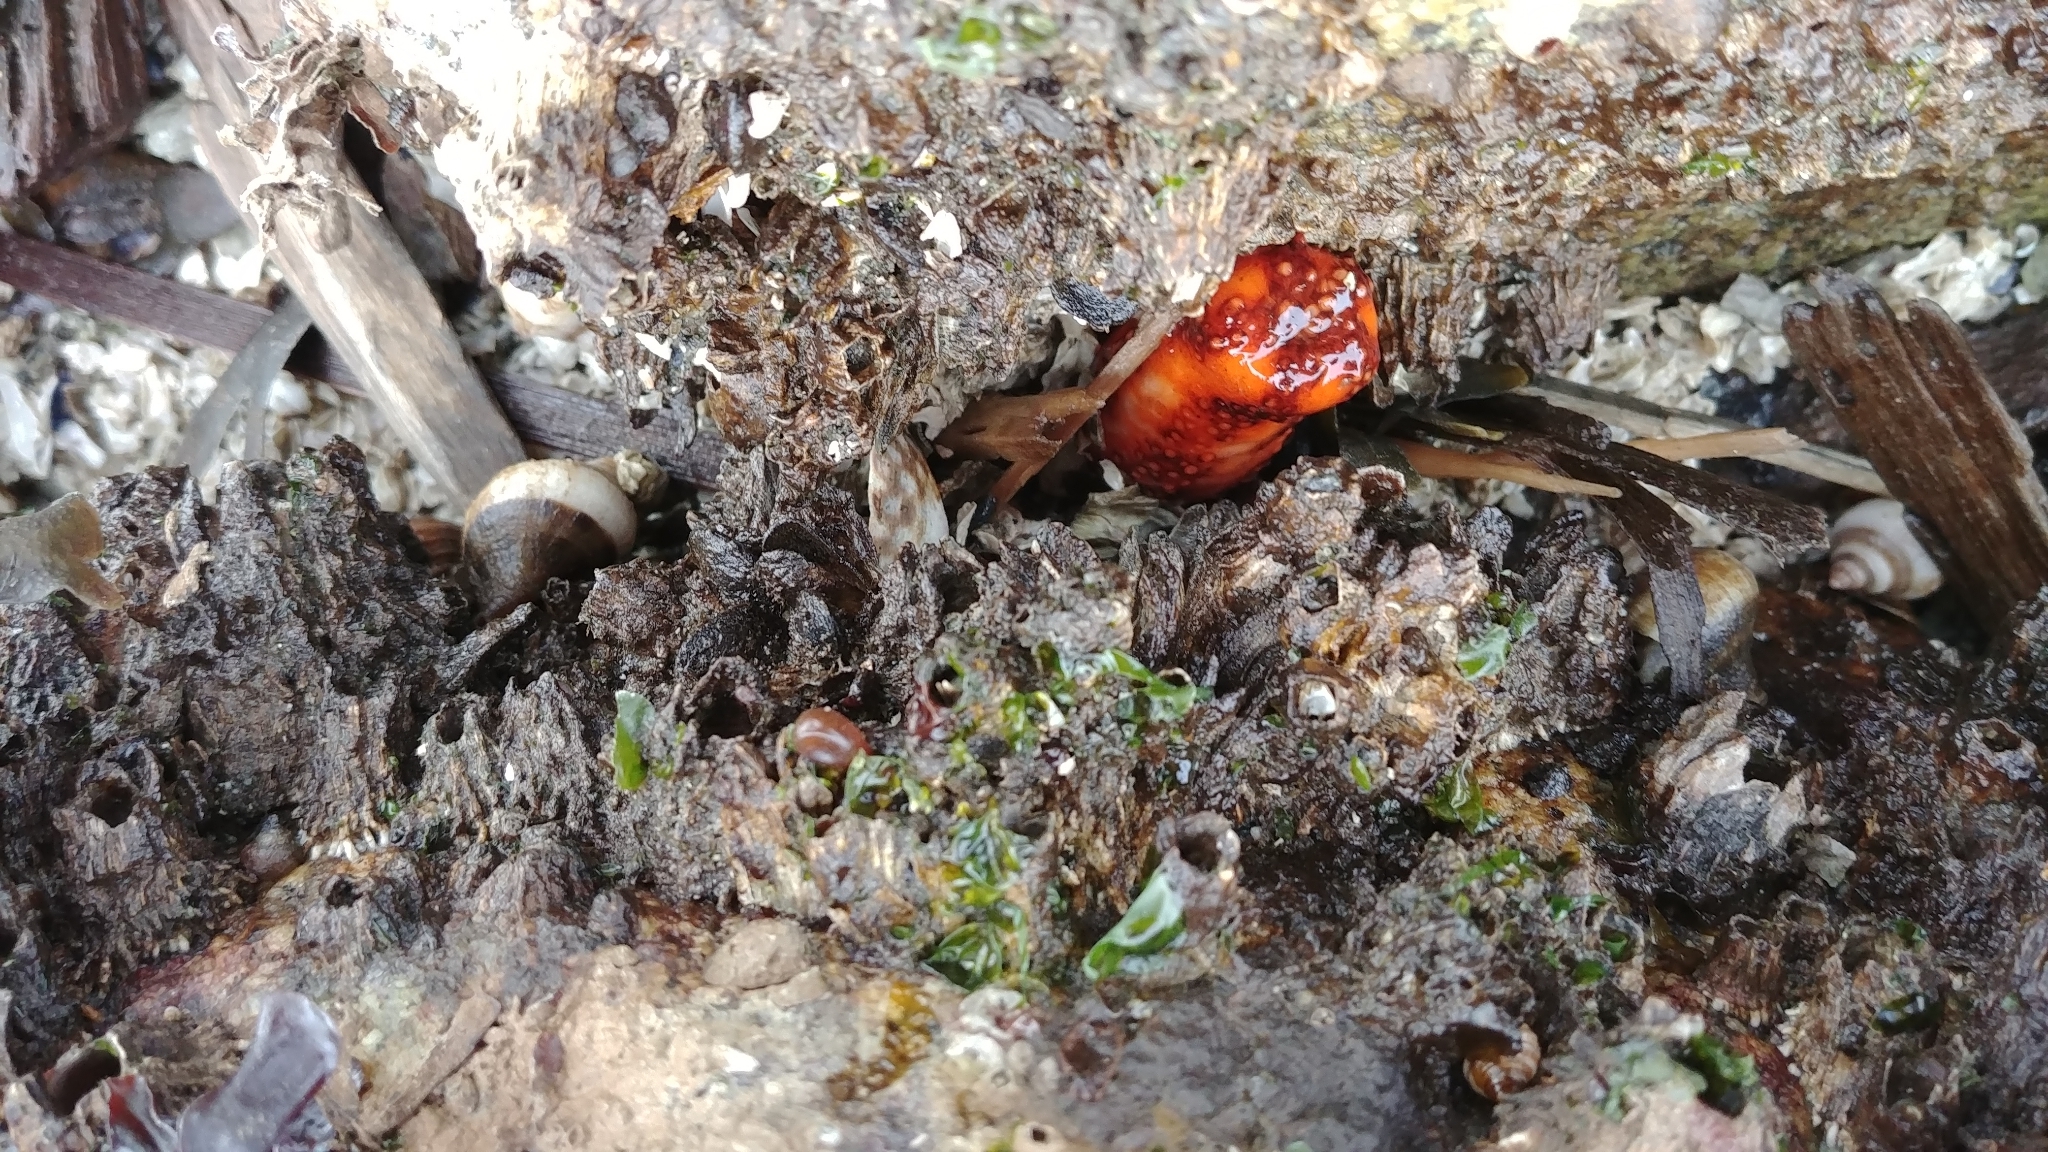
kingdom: Animalia
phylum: Echinodermata
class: Holothuroidea
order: Dendrochirotida
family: Cucumariidae
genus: Cucumaria
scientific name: Cucumaria miniata
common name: Orange sea cucumber
